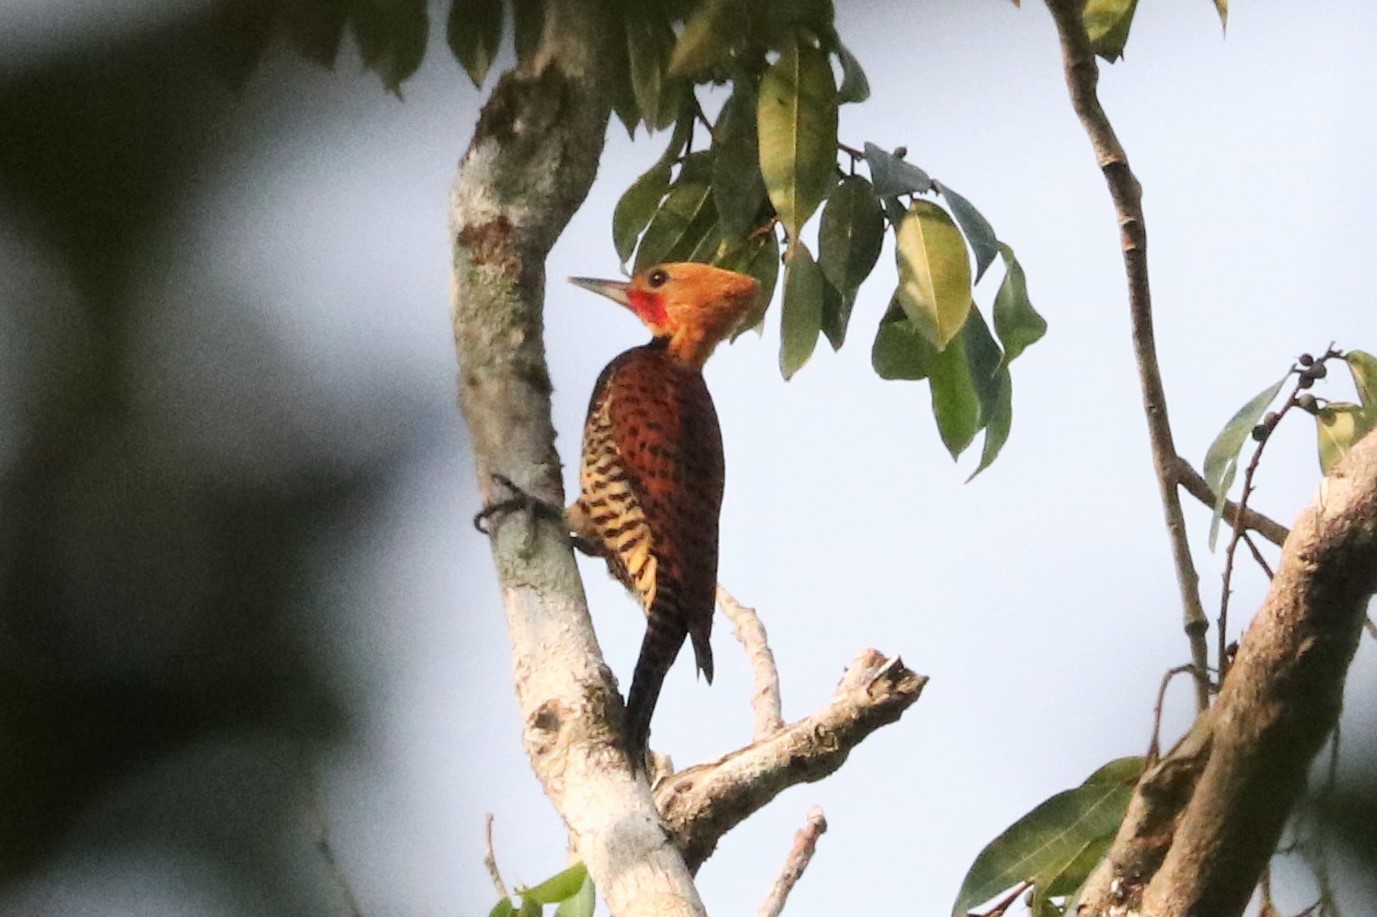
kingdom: Animalia
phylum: Chordata
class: Aves
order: Piciformes
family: Picidae
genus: Celeus
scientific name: Celeus torquatus
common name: Ringed woodpecker
